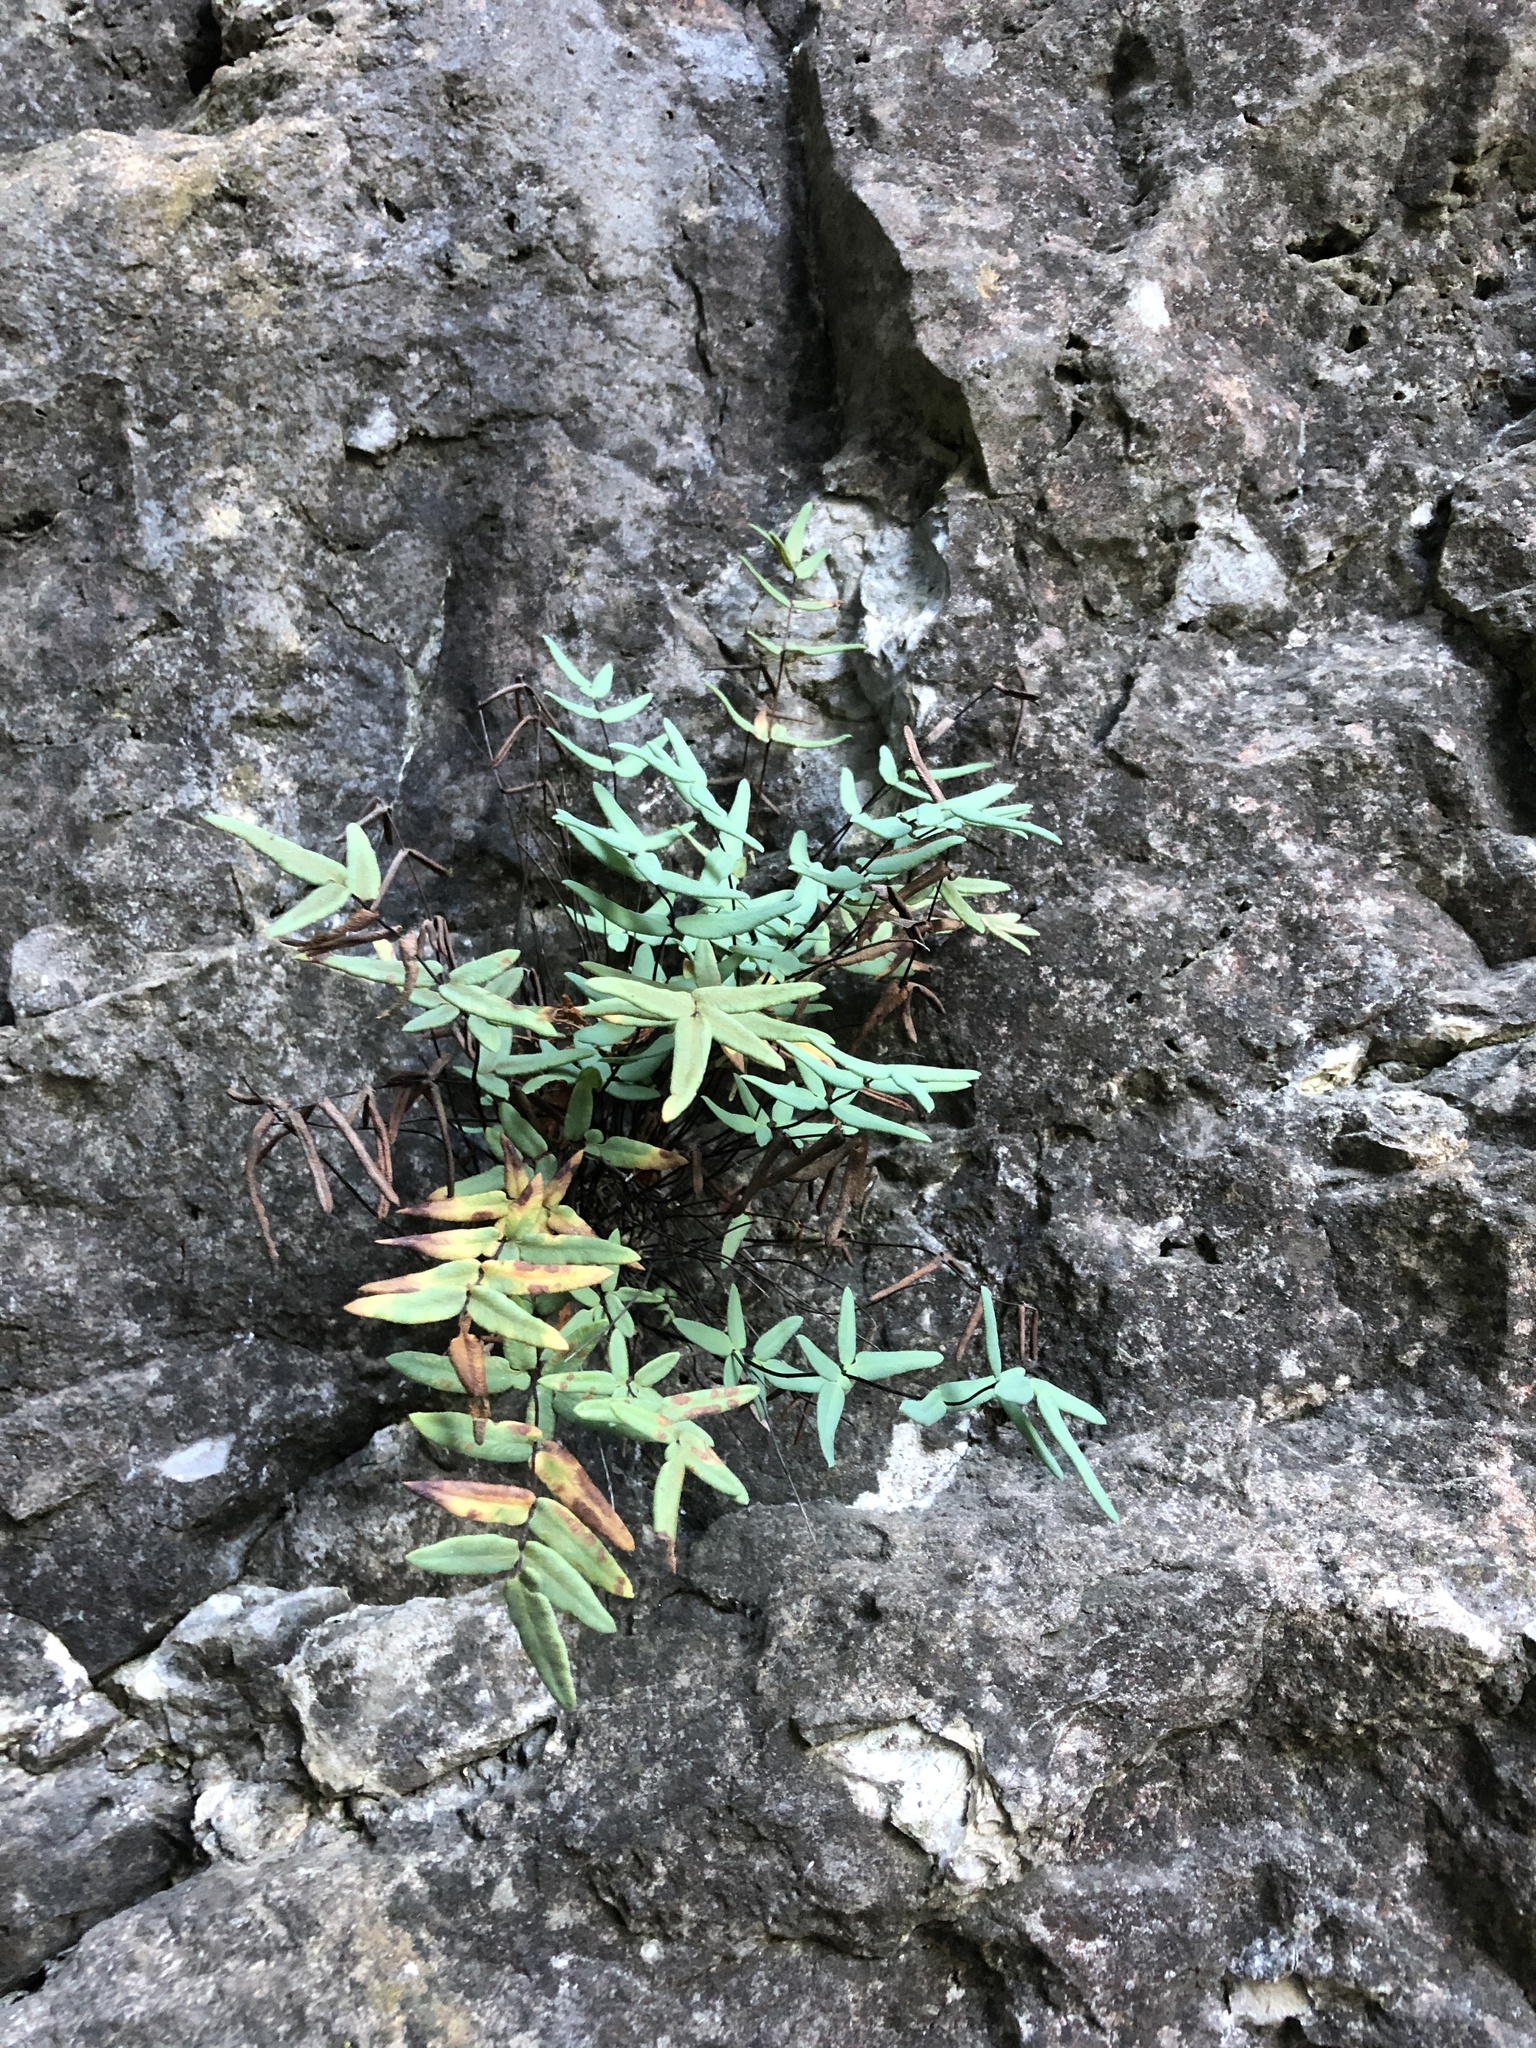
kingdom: Plantae
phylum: Tracheophyta
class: Polypodiopsida
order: Polypodiales
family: Pteridaceae
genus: Pellaea
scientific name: Pellaea glabella
